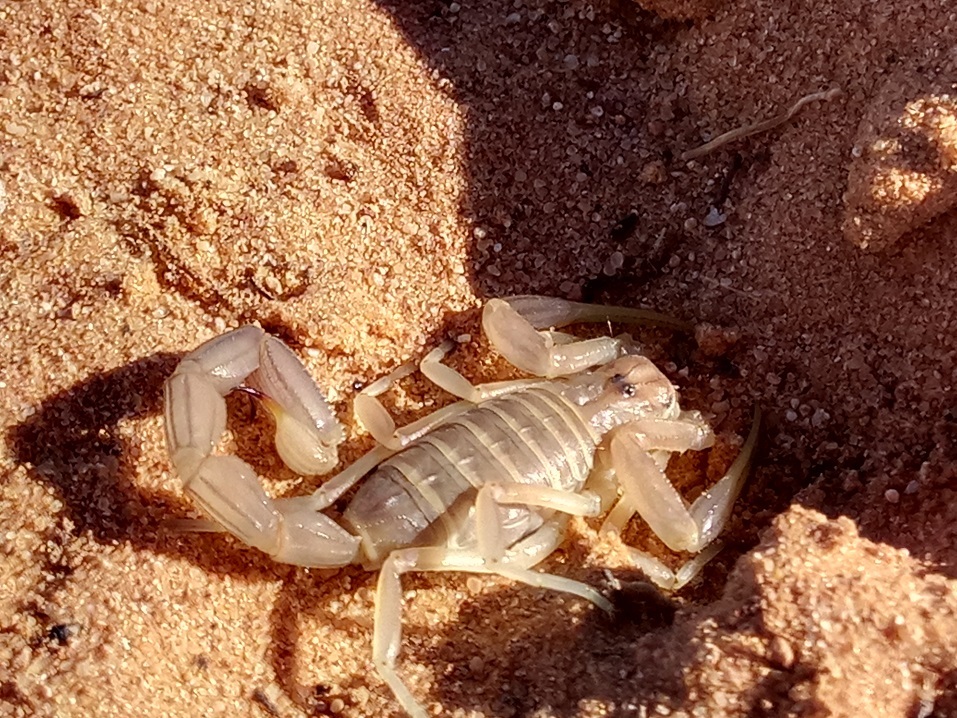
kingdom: Animalia
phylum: Arthropoda
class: Arachnida
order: Scorpiones
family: Buthidae
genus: Androctonus
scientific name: Androctonus amoreuxi
